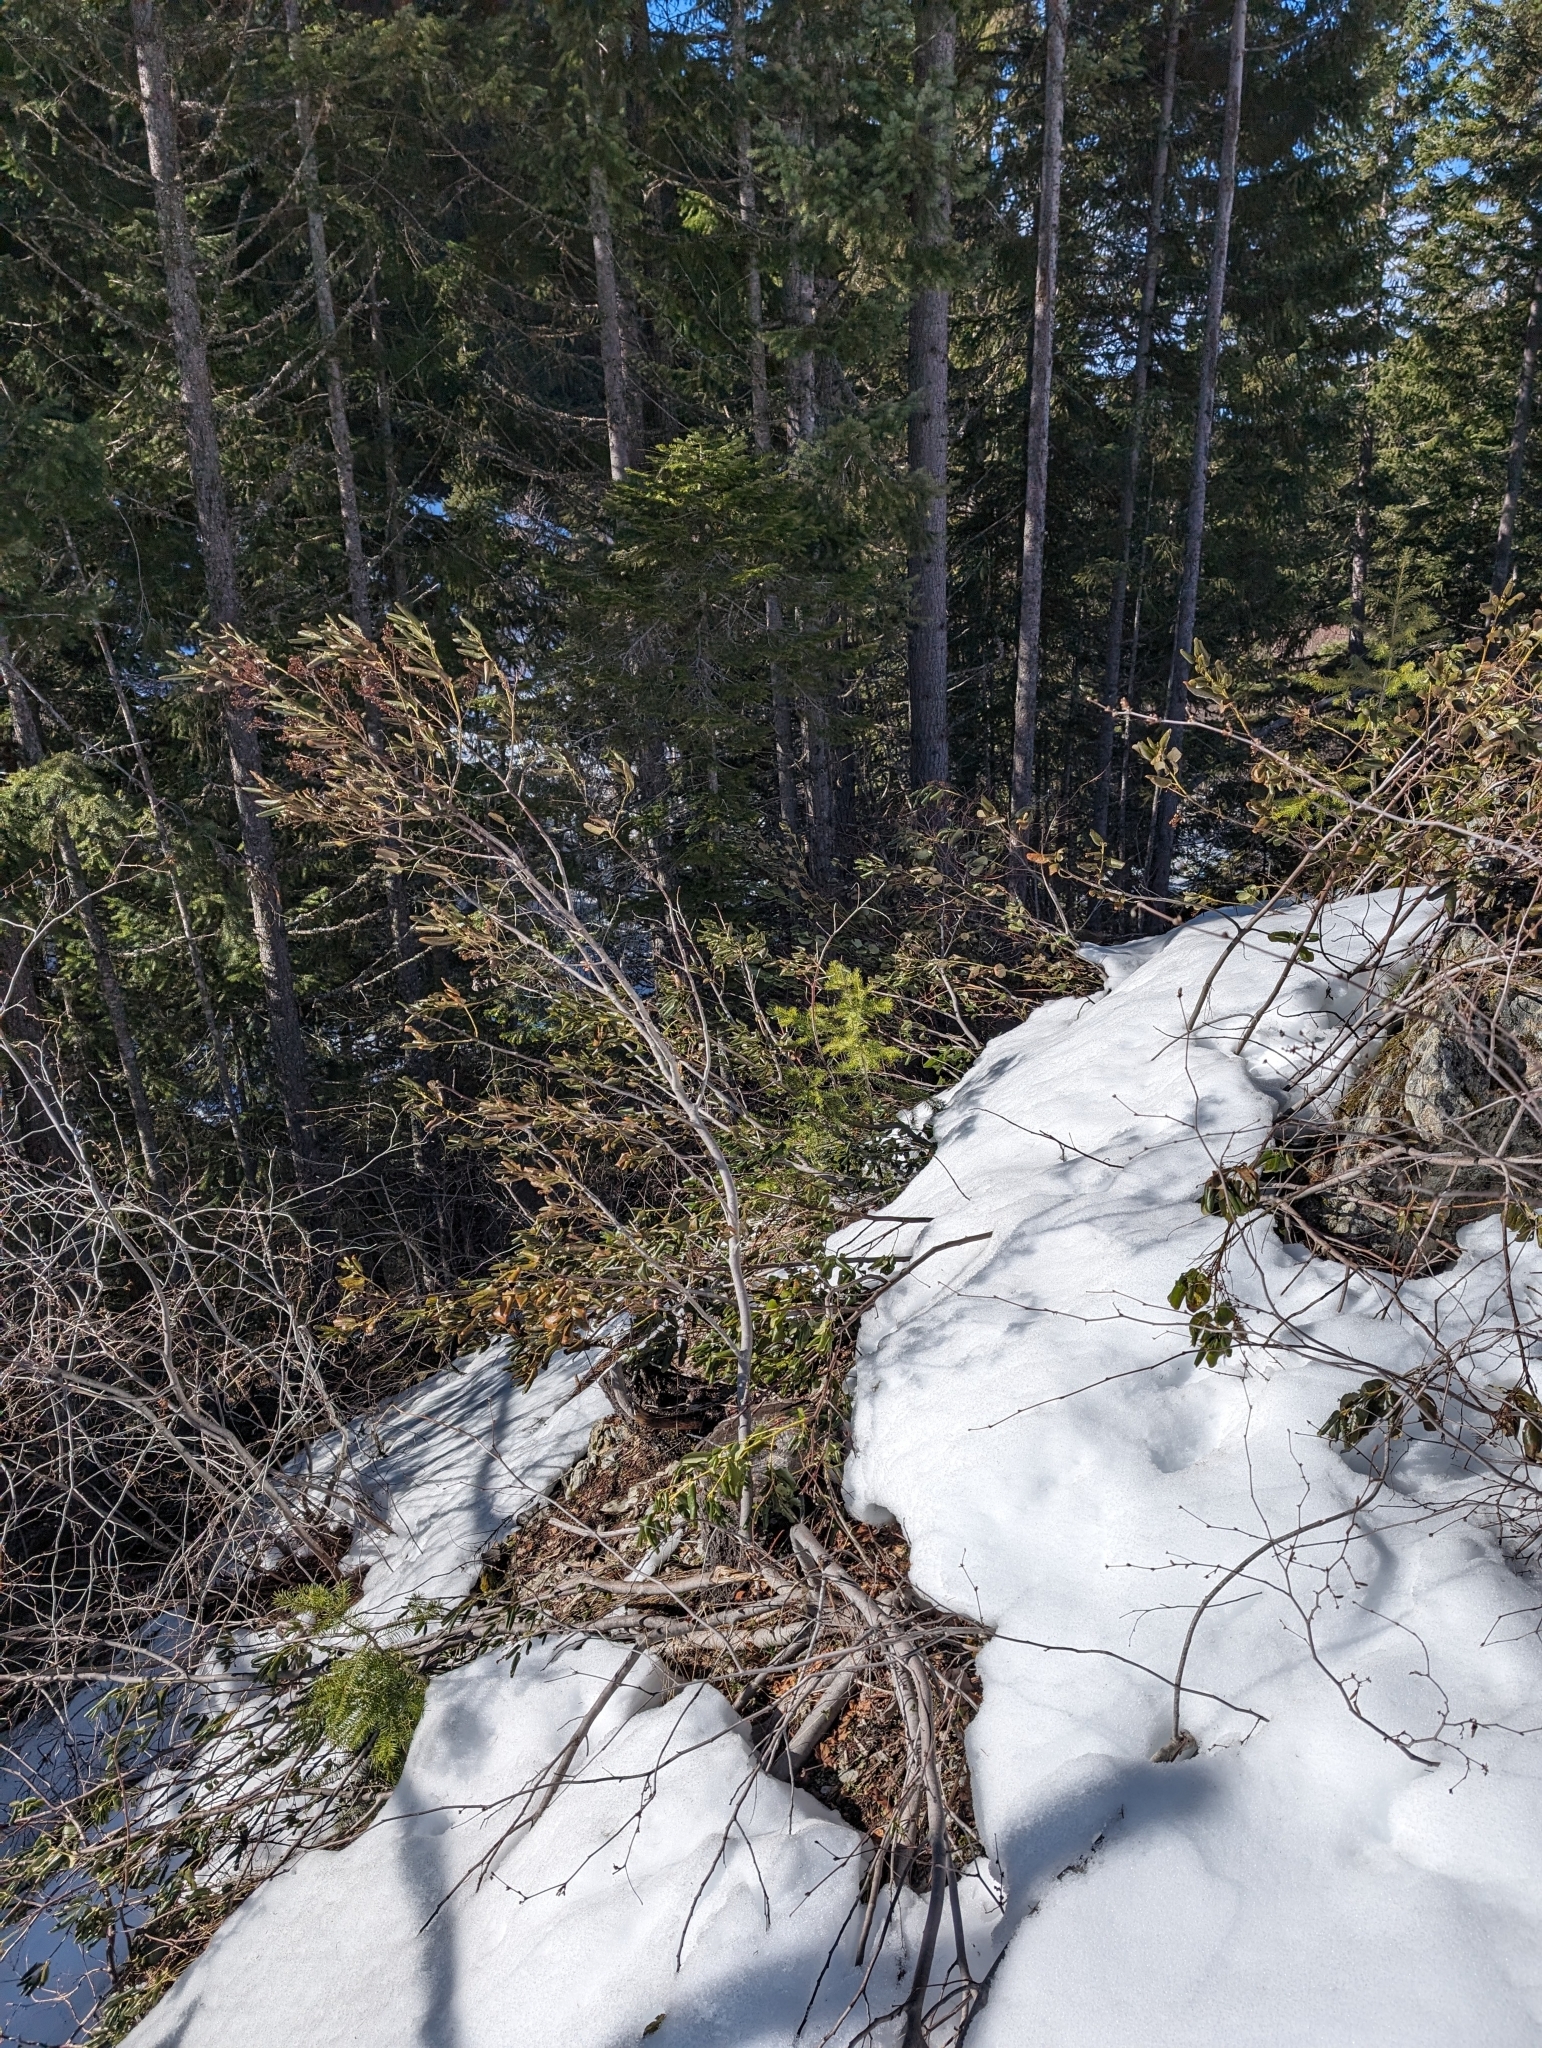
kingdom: Plantae
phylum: Tracheophyta
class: Magnoliopsida
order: Rosales
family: Rhamnaceae
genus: Ceanothus
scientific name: Ceanothus velutinus
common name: Snowbrush
